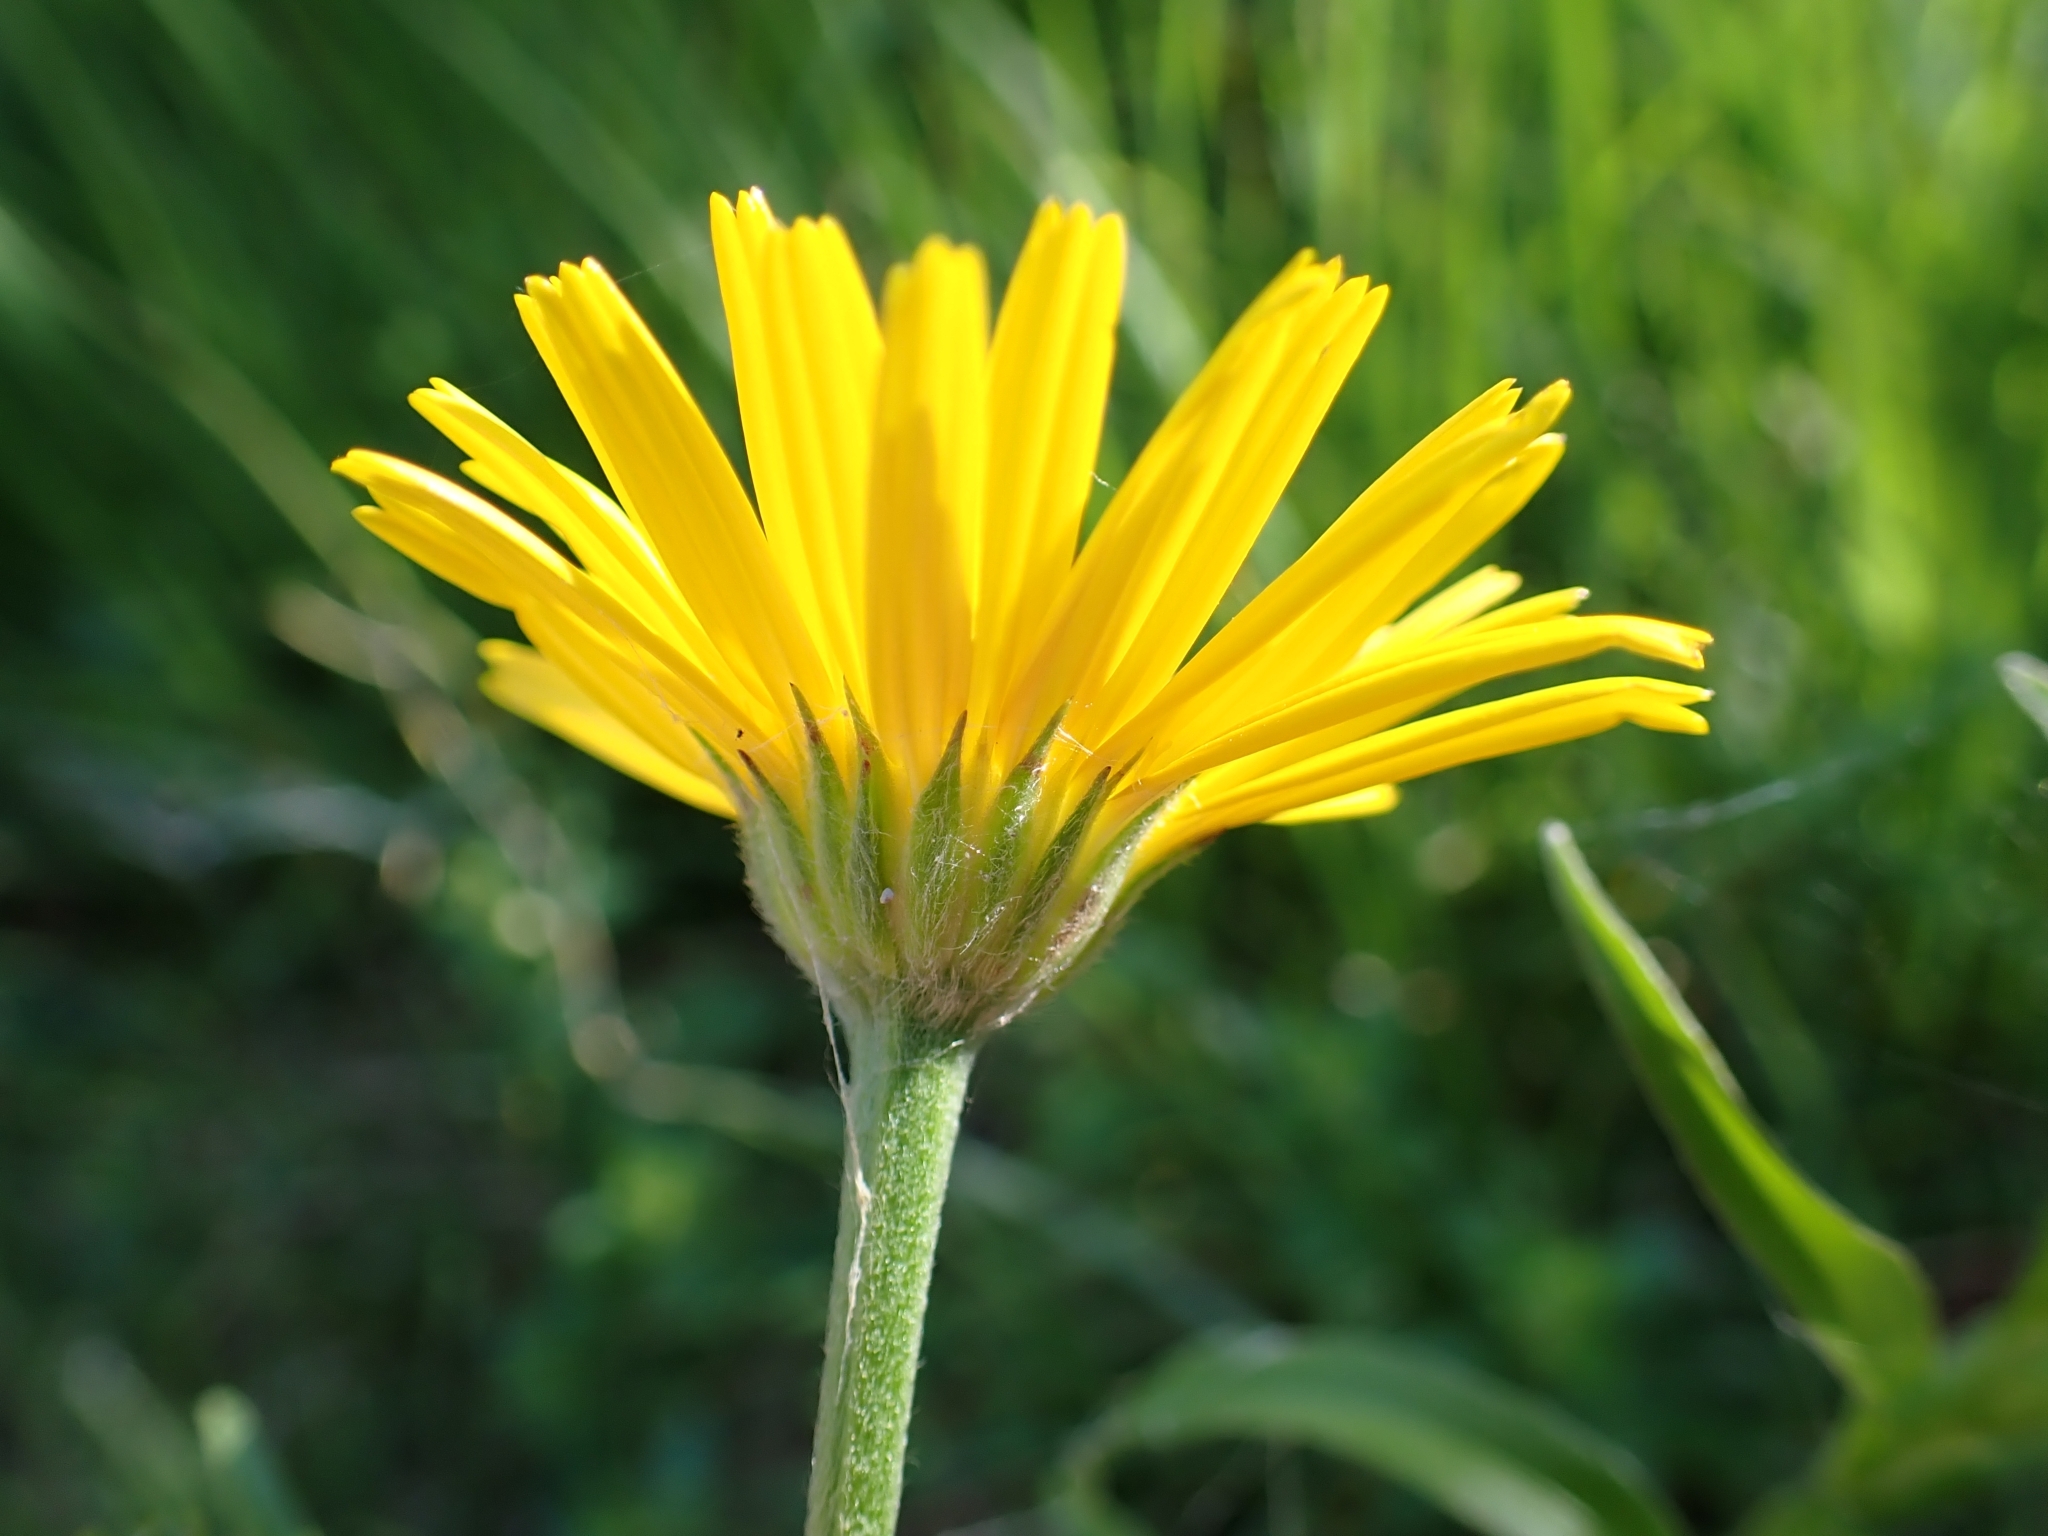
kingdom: Plantae
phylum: Tracheophyta
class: Magnoliopsida
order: Asterales
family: Asteraceae
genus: Buphthalmum
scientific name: Buphthalmum salicifolium
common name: Willow-leaved yellow-oxeye
